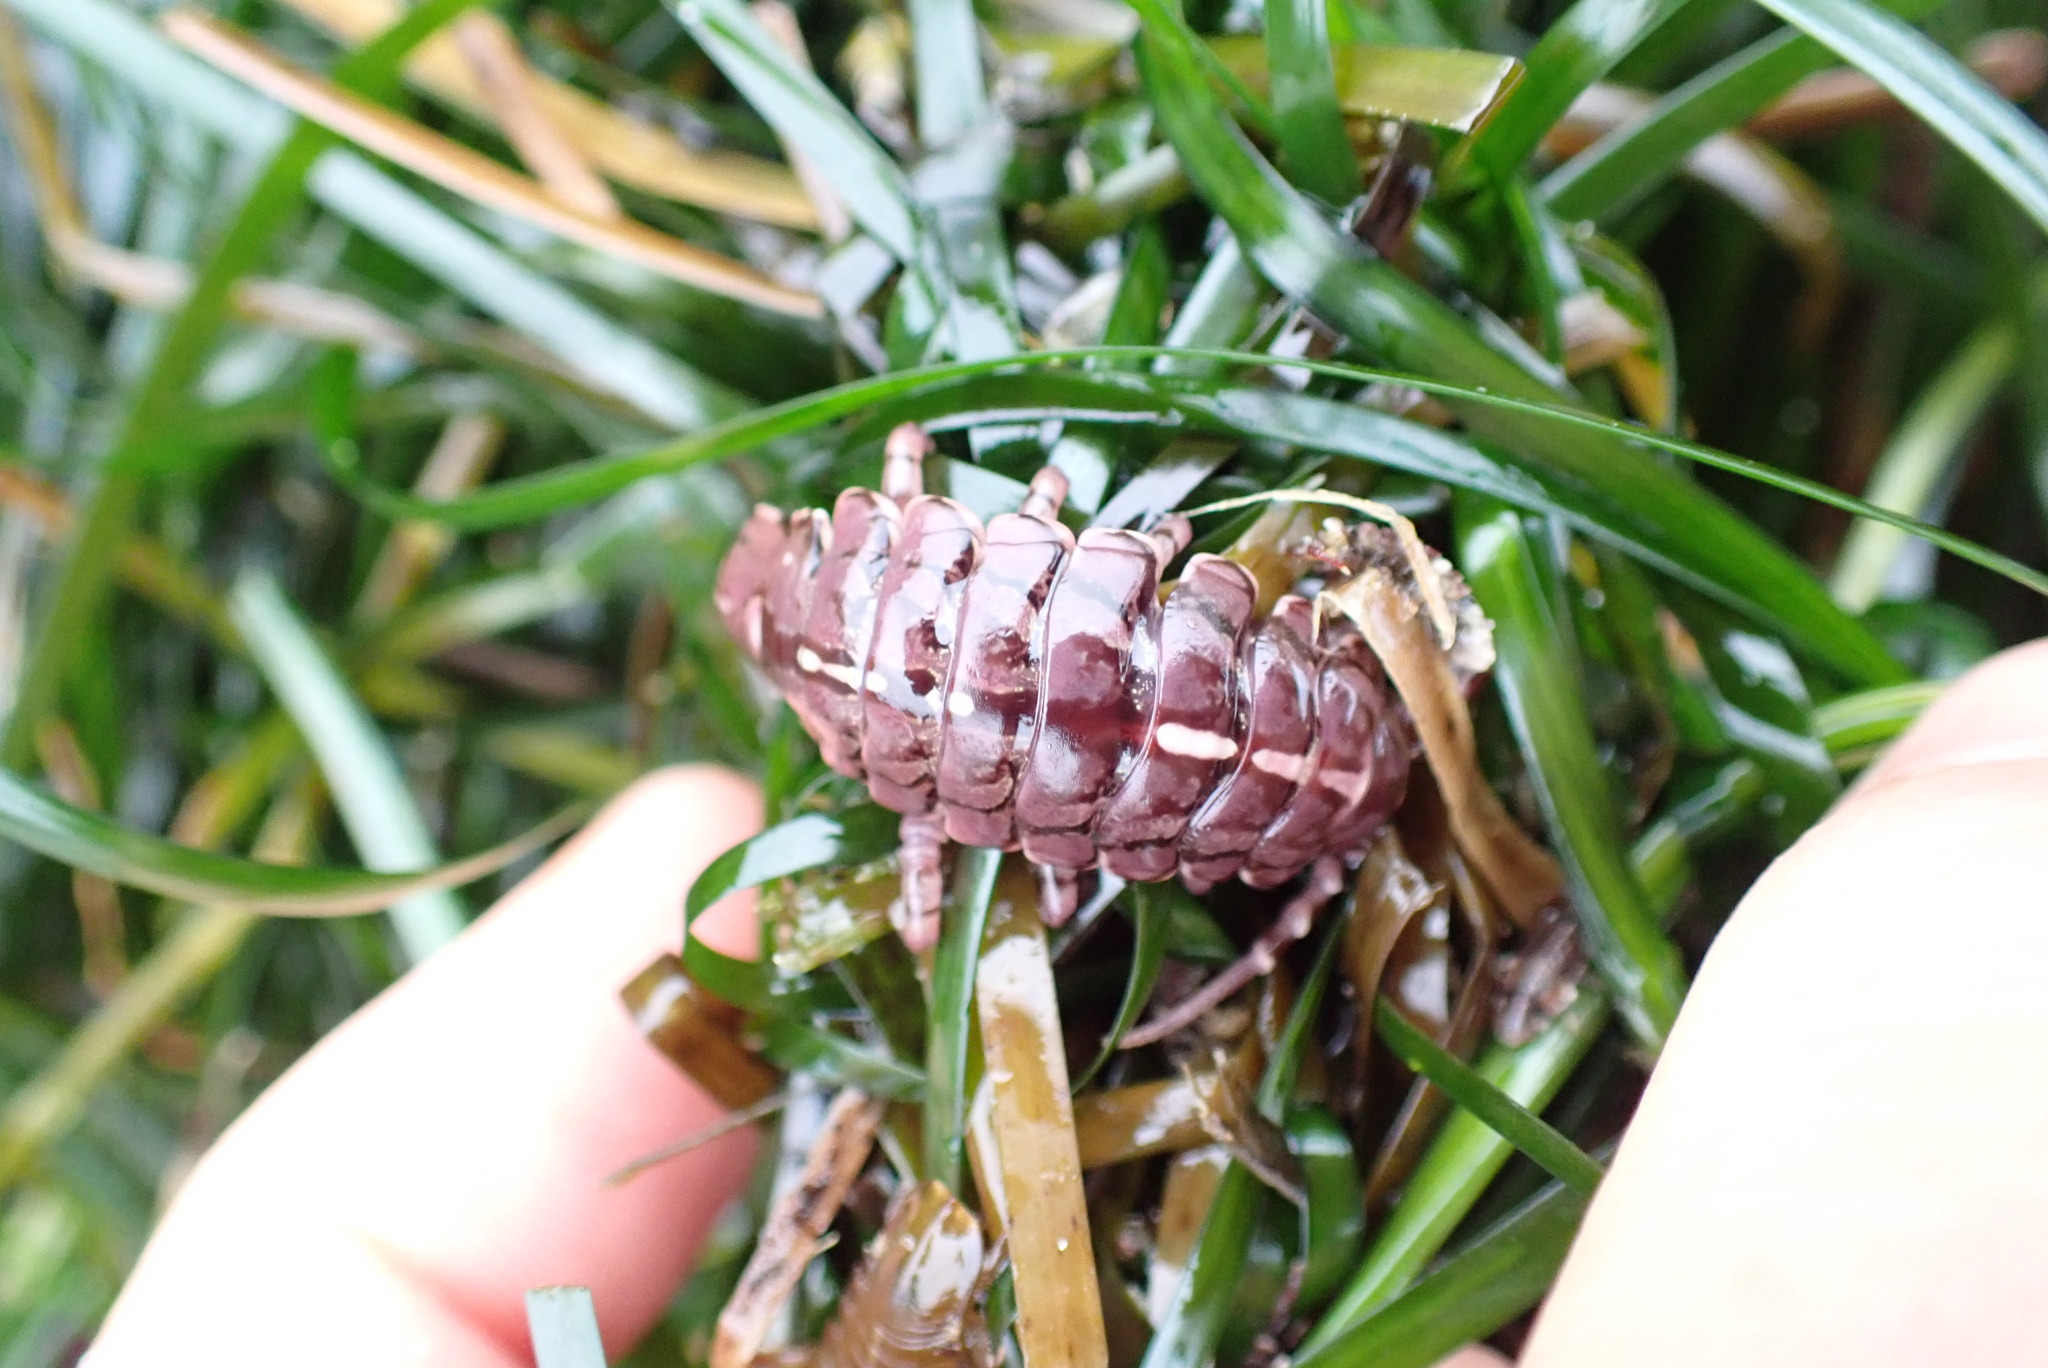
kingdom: Animalia
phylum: Arthropoda
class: Malacostraca
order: Isopoda
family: Idoteidae
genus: Pentidotea
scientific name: Pentidotea wosnesenskii
